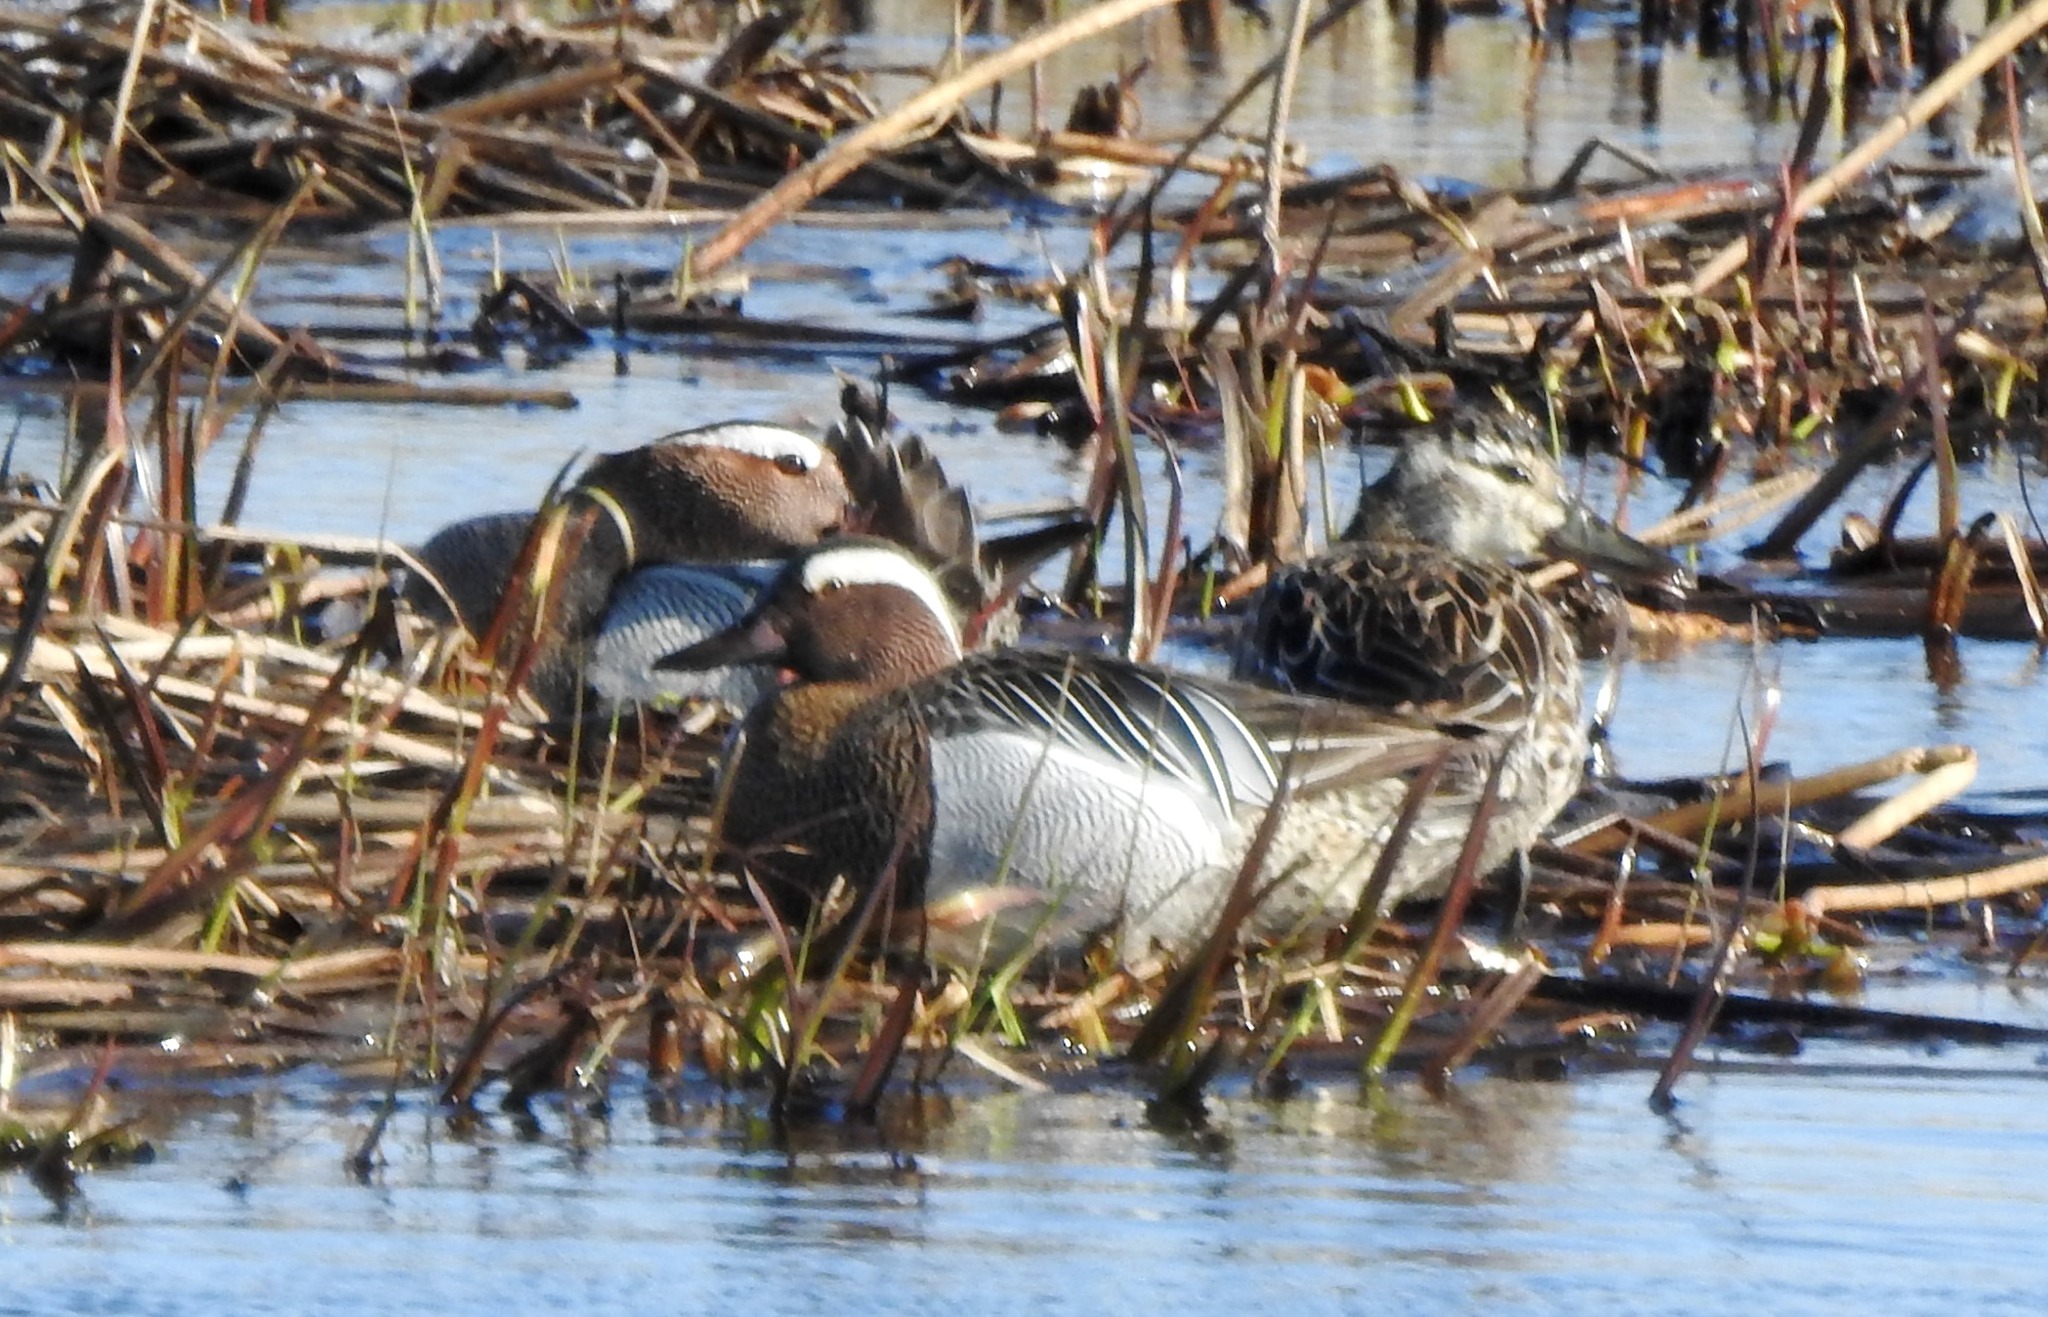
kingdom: Animalia
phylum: Chordata
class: Aves
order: Anseriformes
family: Anatidae
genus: Spatula
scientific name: Spatula querquedula
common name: Garganey
